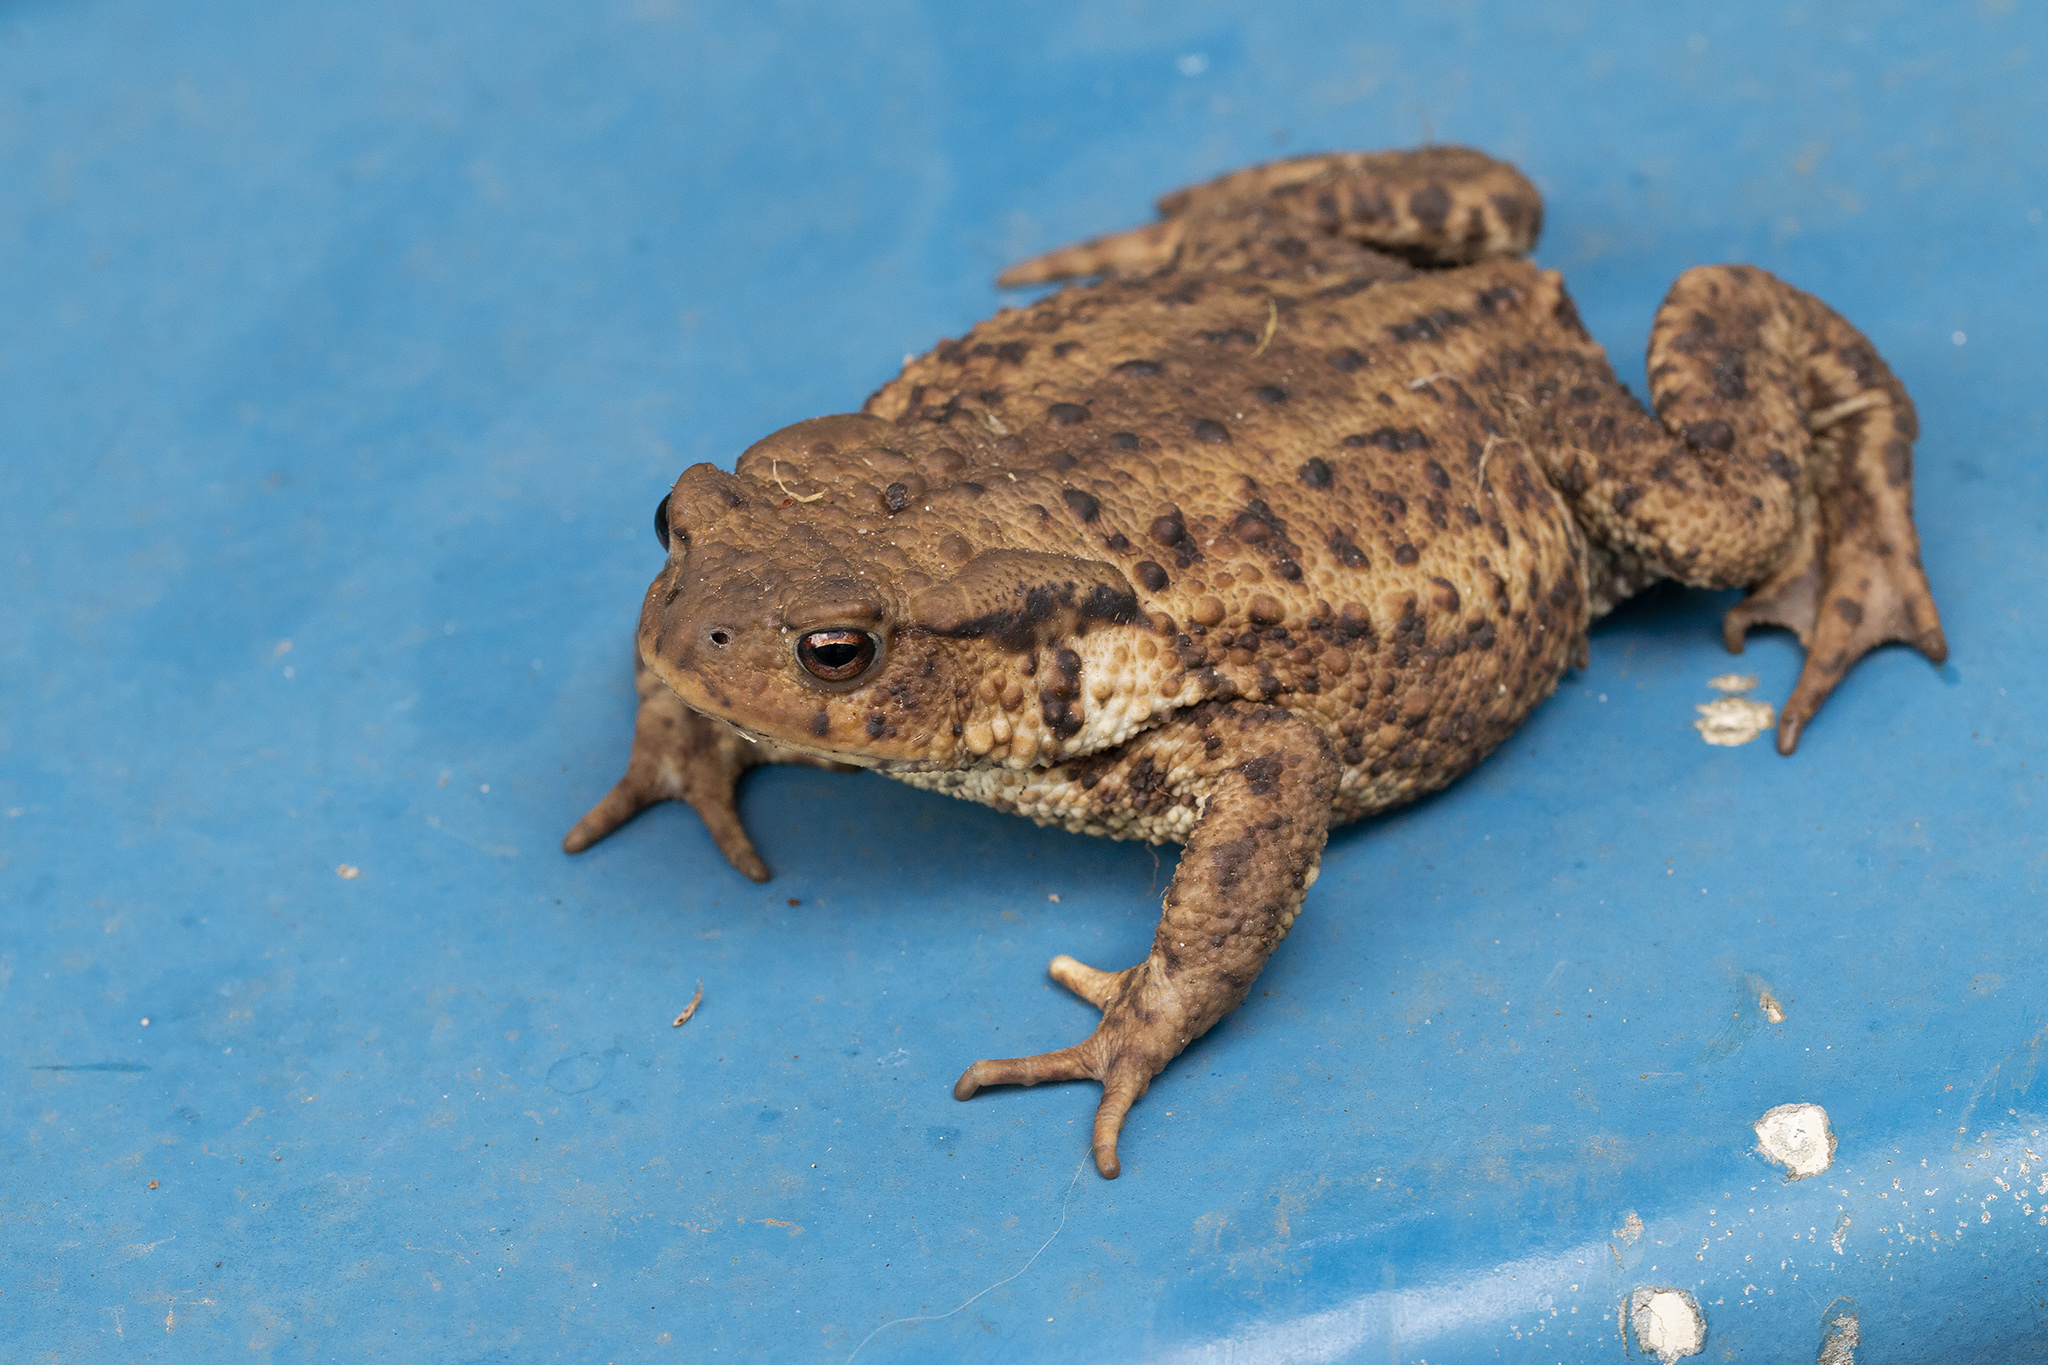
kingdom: Animalia
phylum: Chordata
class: Amphibia
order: Anura
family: Bufonidae
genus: Bufo
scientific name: Bufo bufo
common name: Common toad
